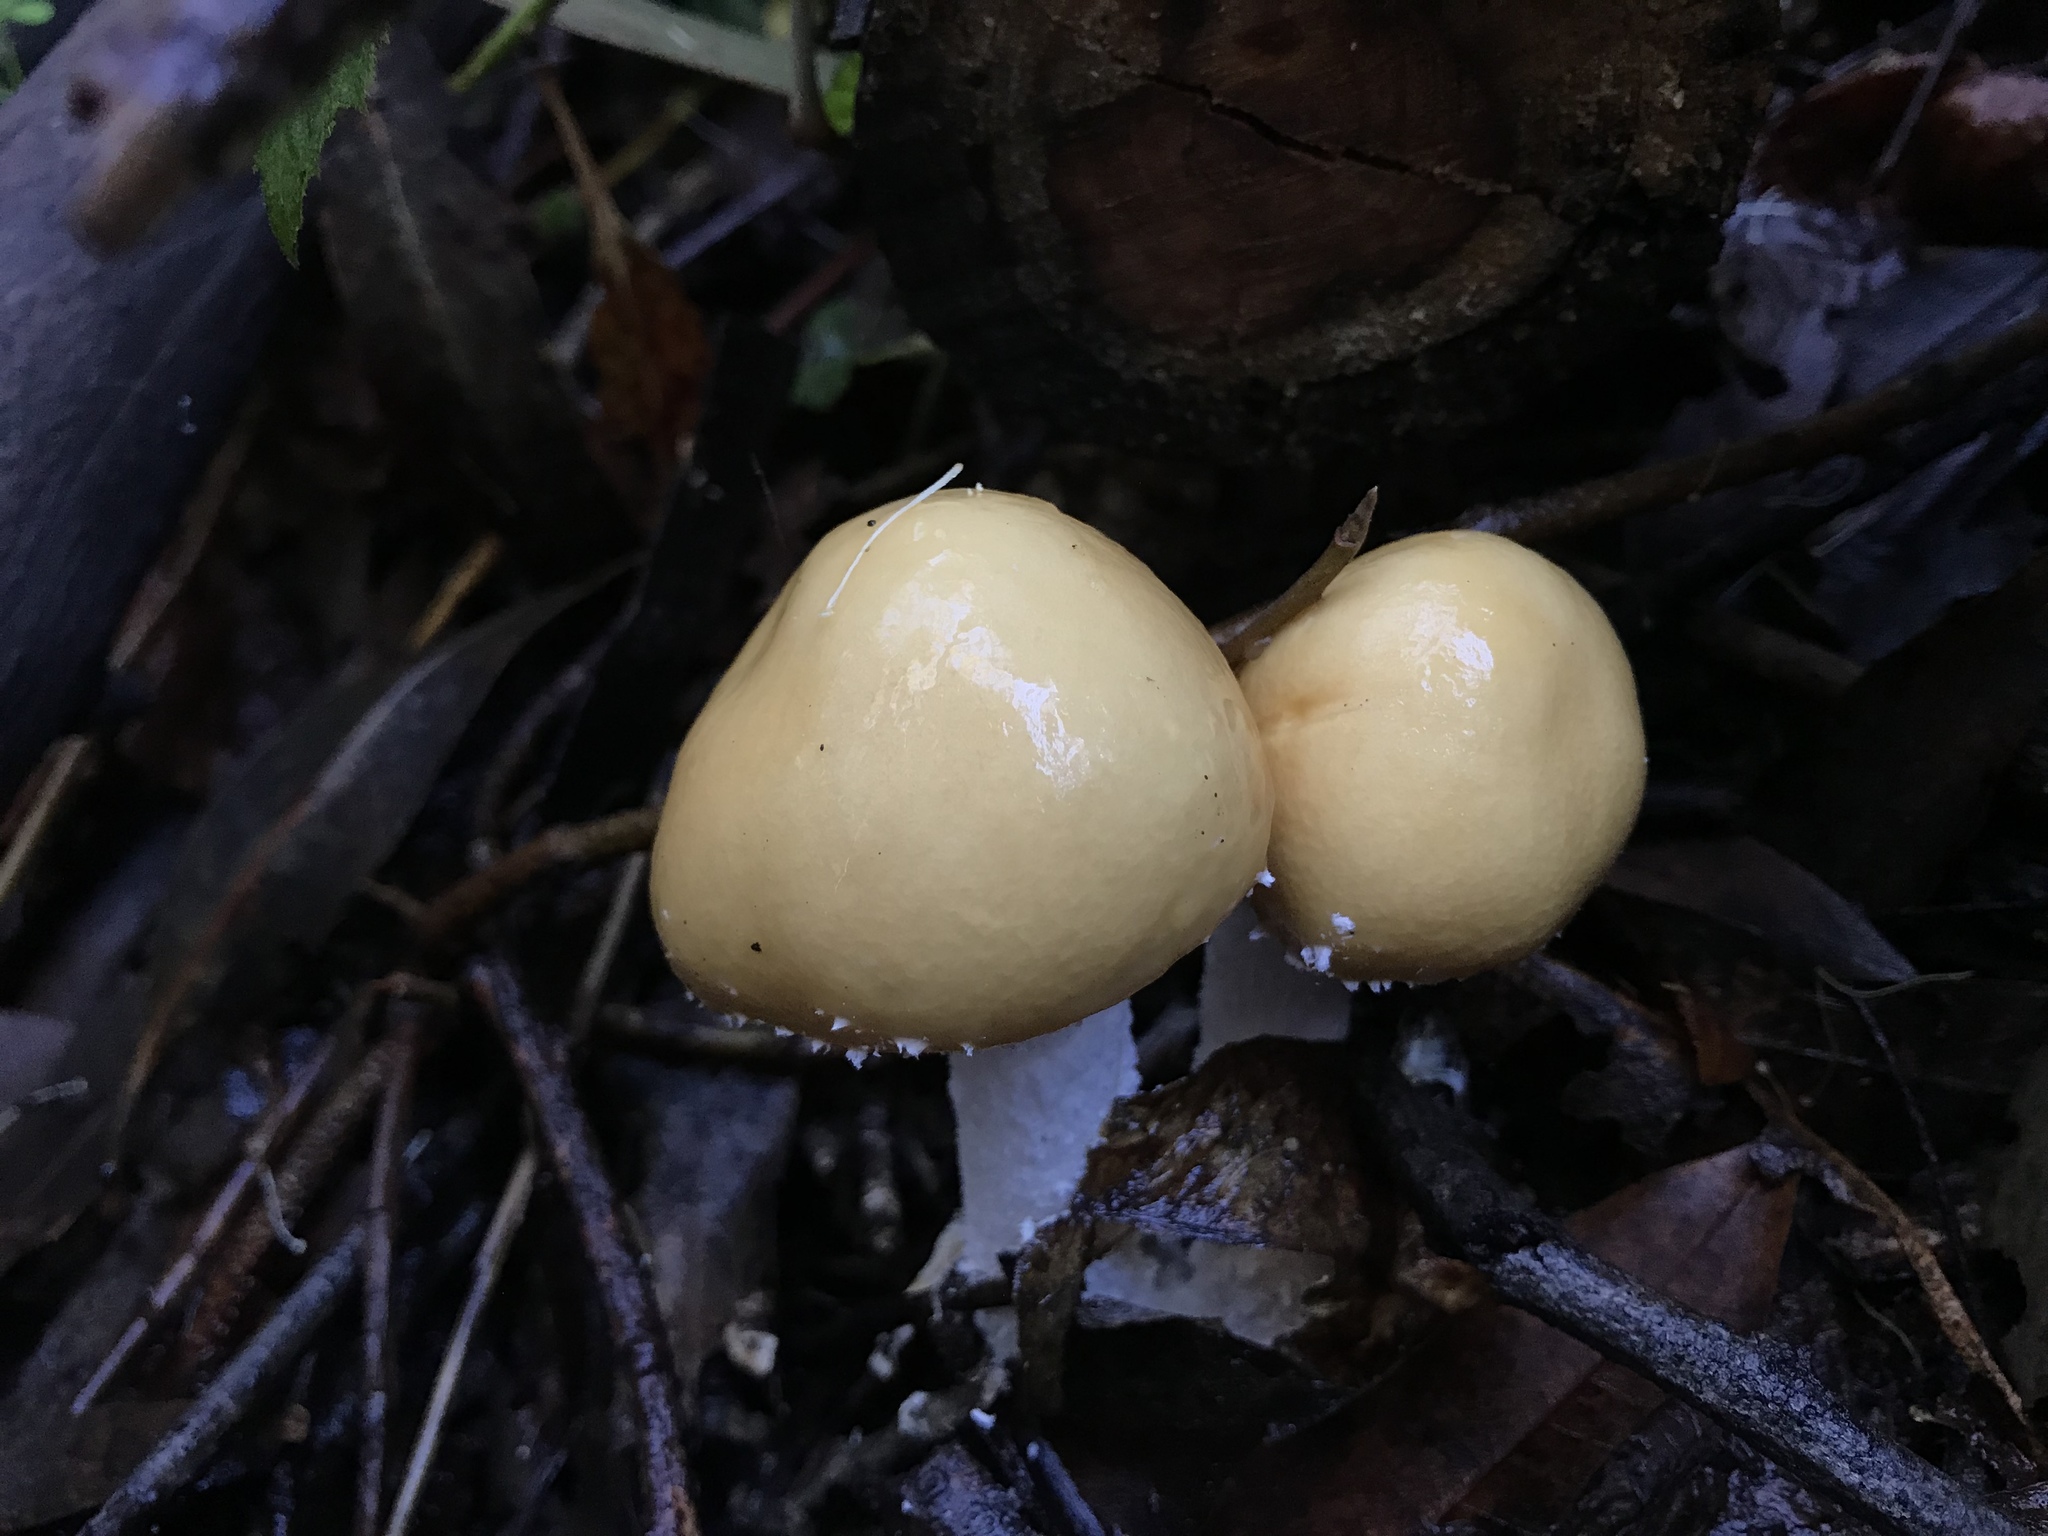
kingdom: Fungi
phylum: Basidiomycota
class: Agaricomycetes
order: Agaricales
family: Strophariaceae
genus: Stropharia
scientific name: Stropharia ambigua
